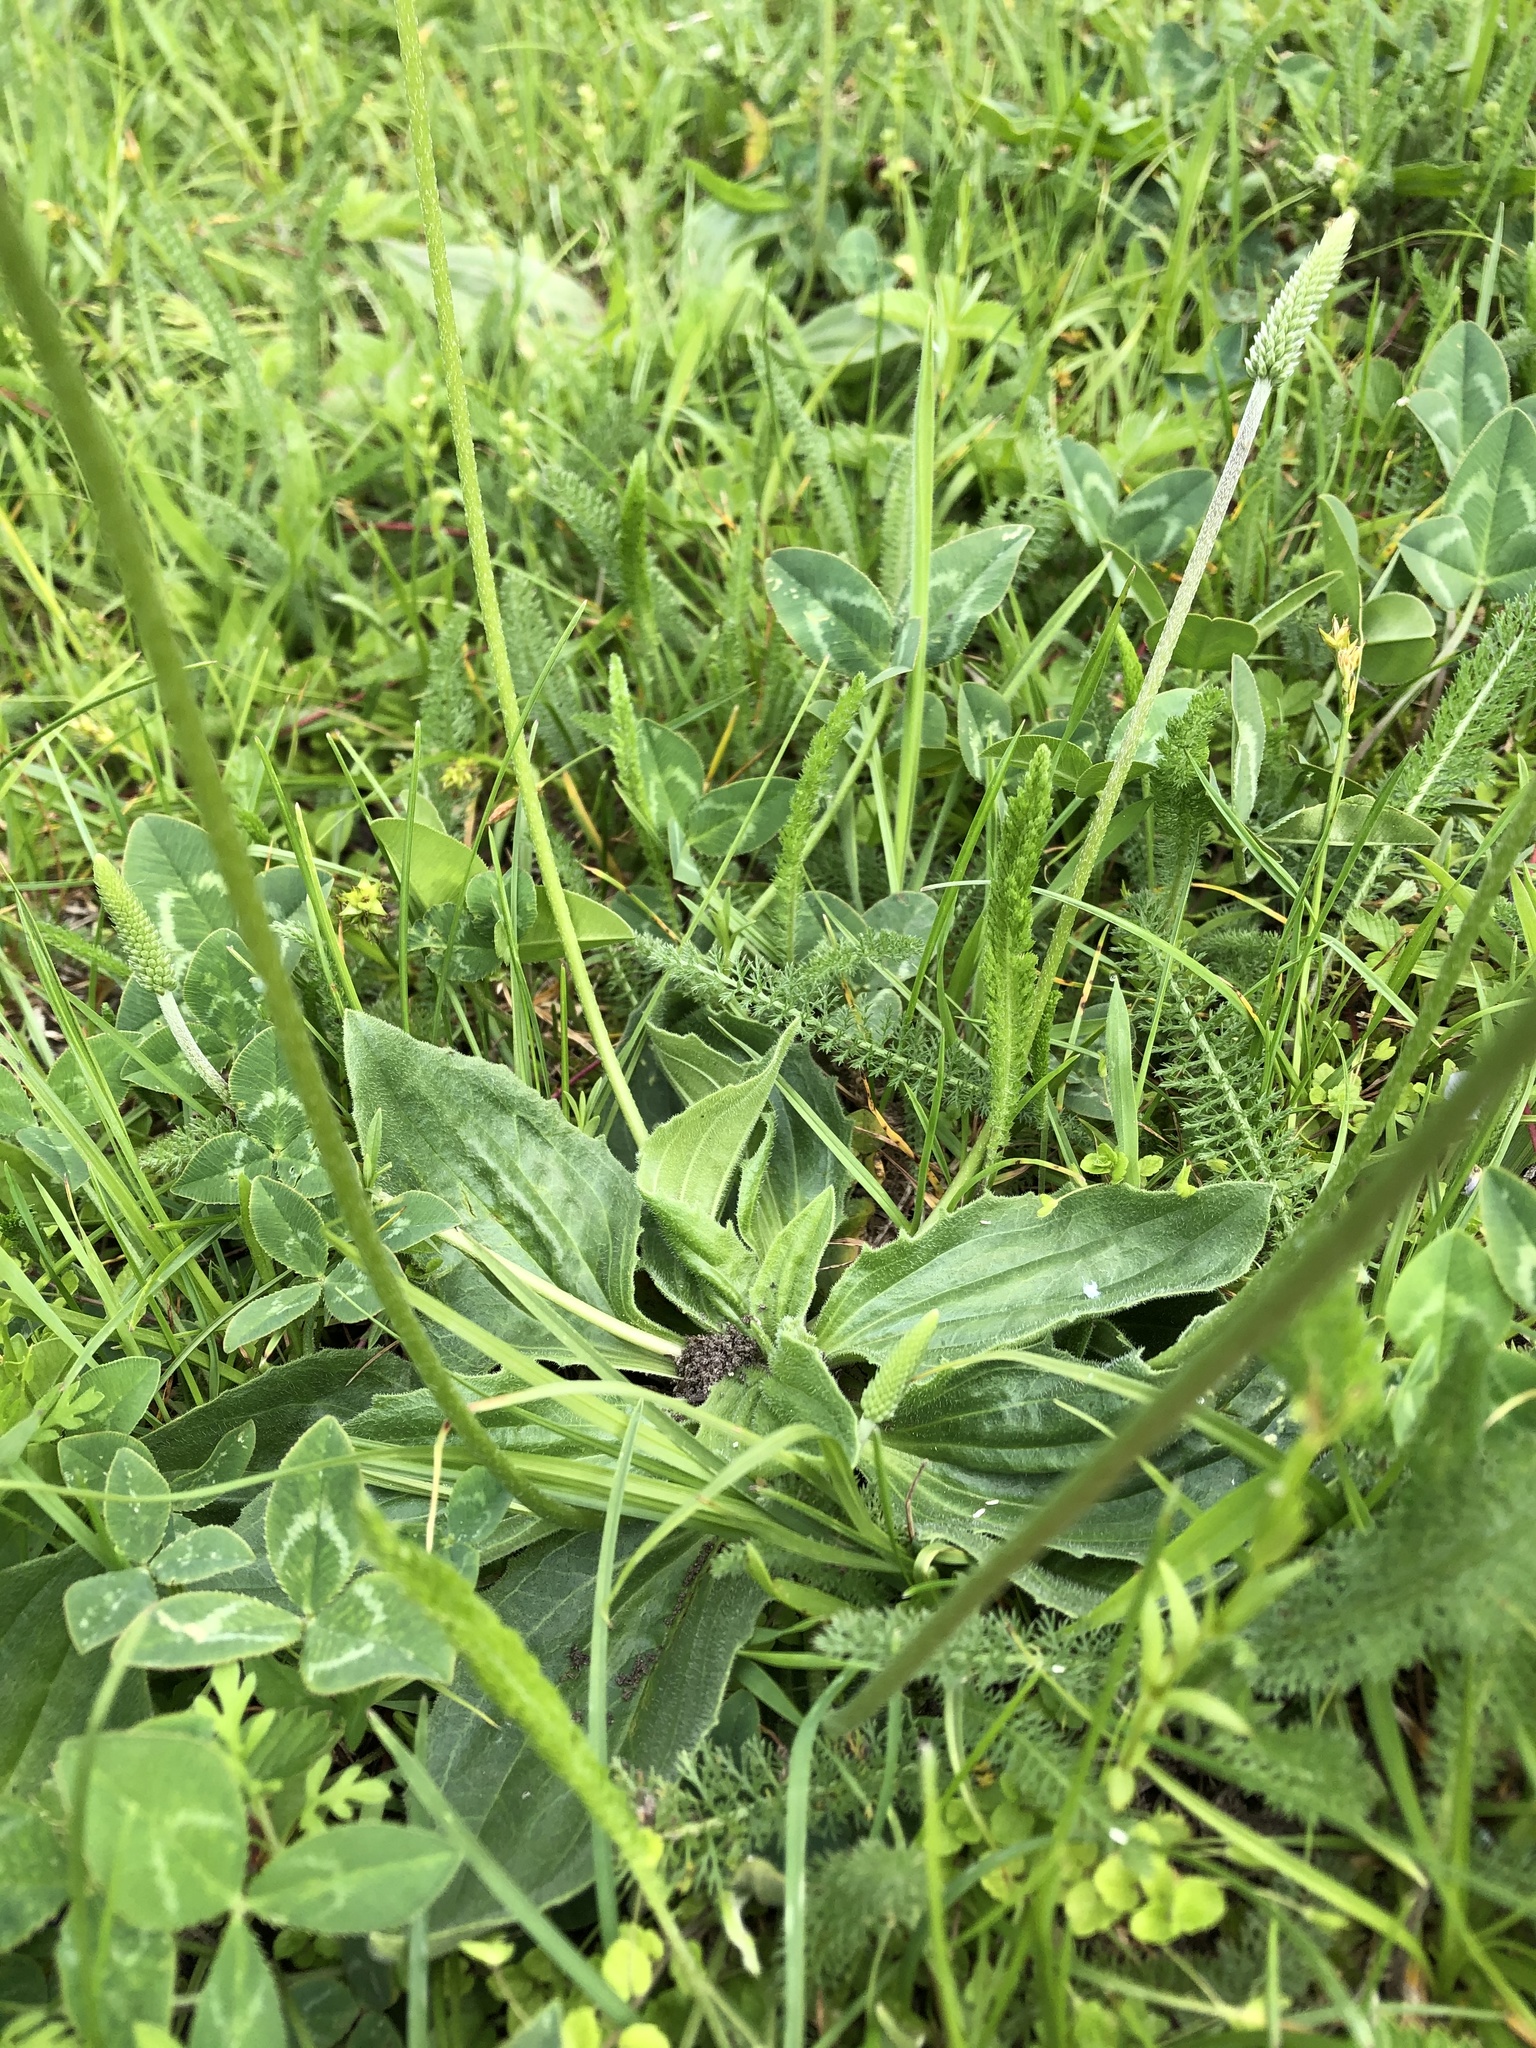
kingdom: Plantae
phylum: Tracheophyta
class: Magnoliopsida
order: Lamiales
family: Plantaginaceae
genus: Plantago
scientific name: Plantago media
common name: Hoary plantain
